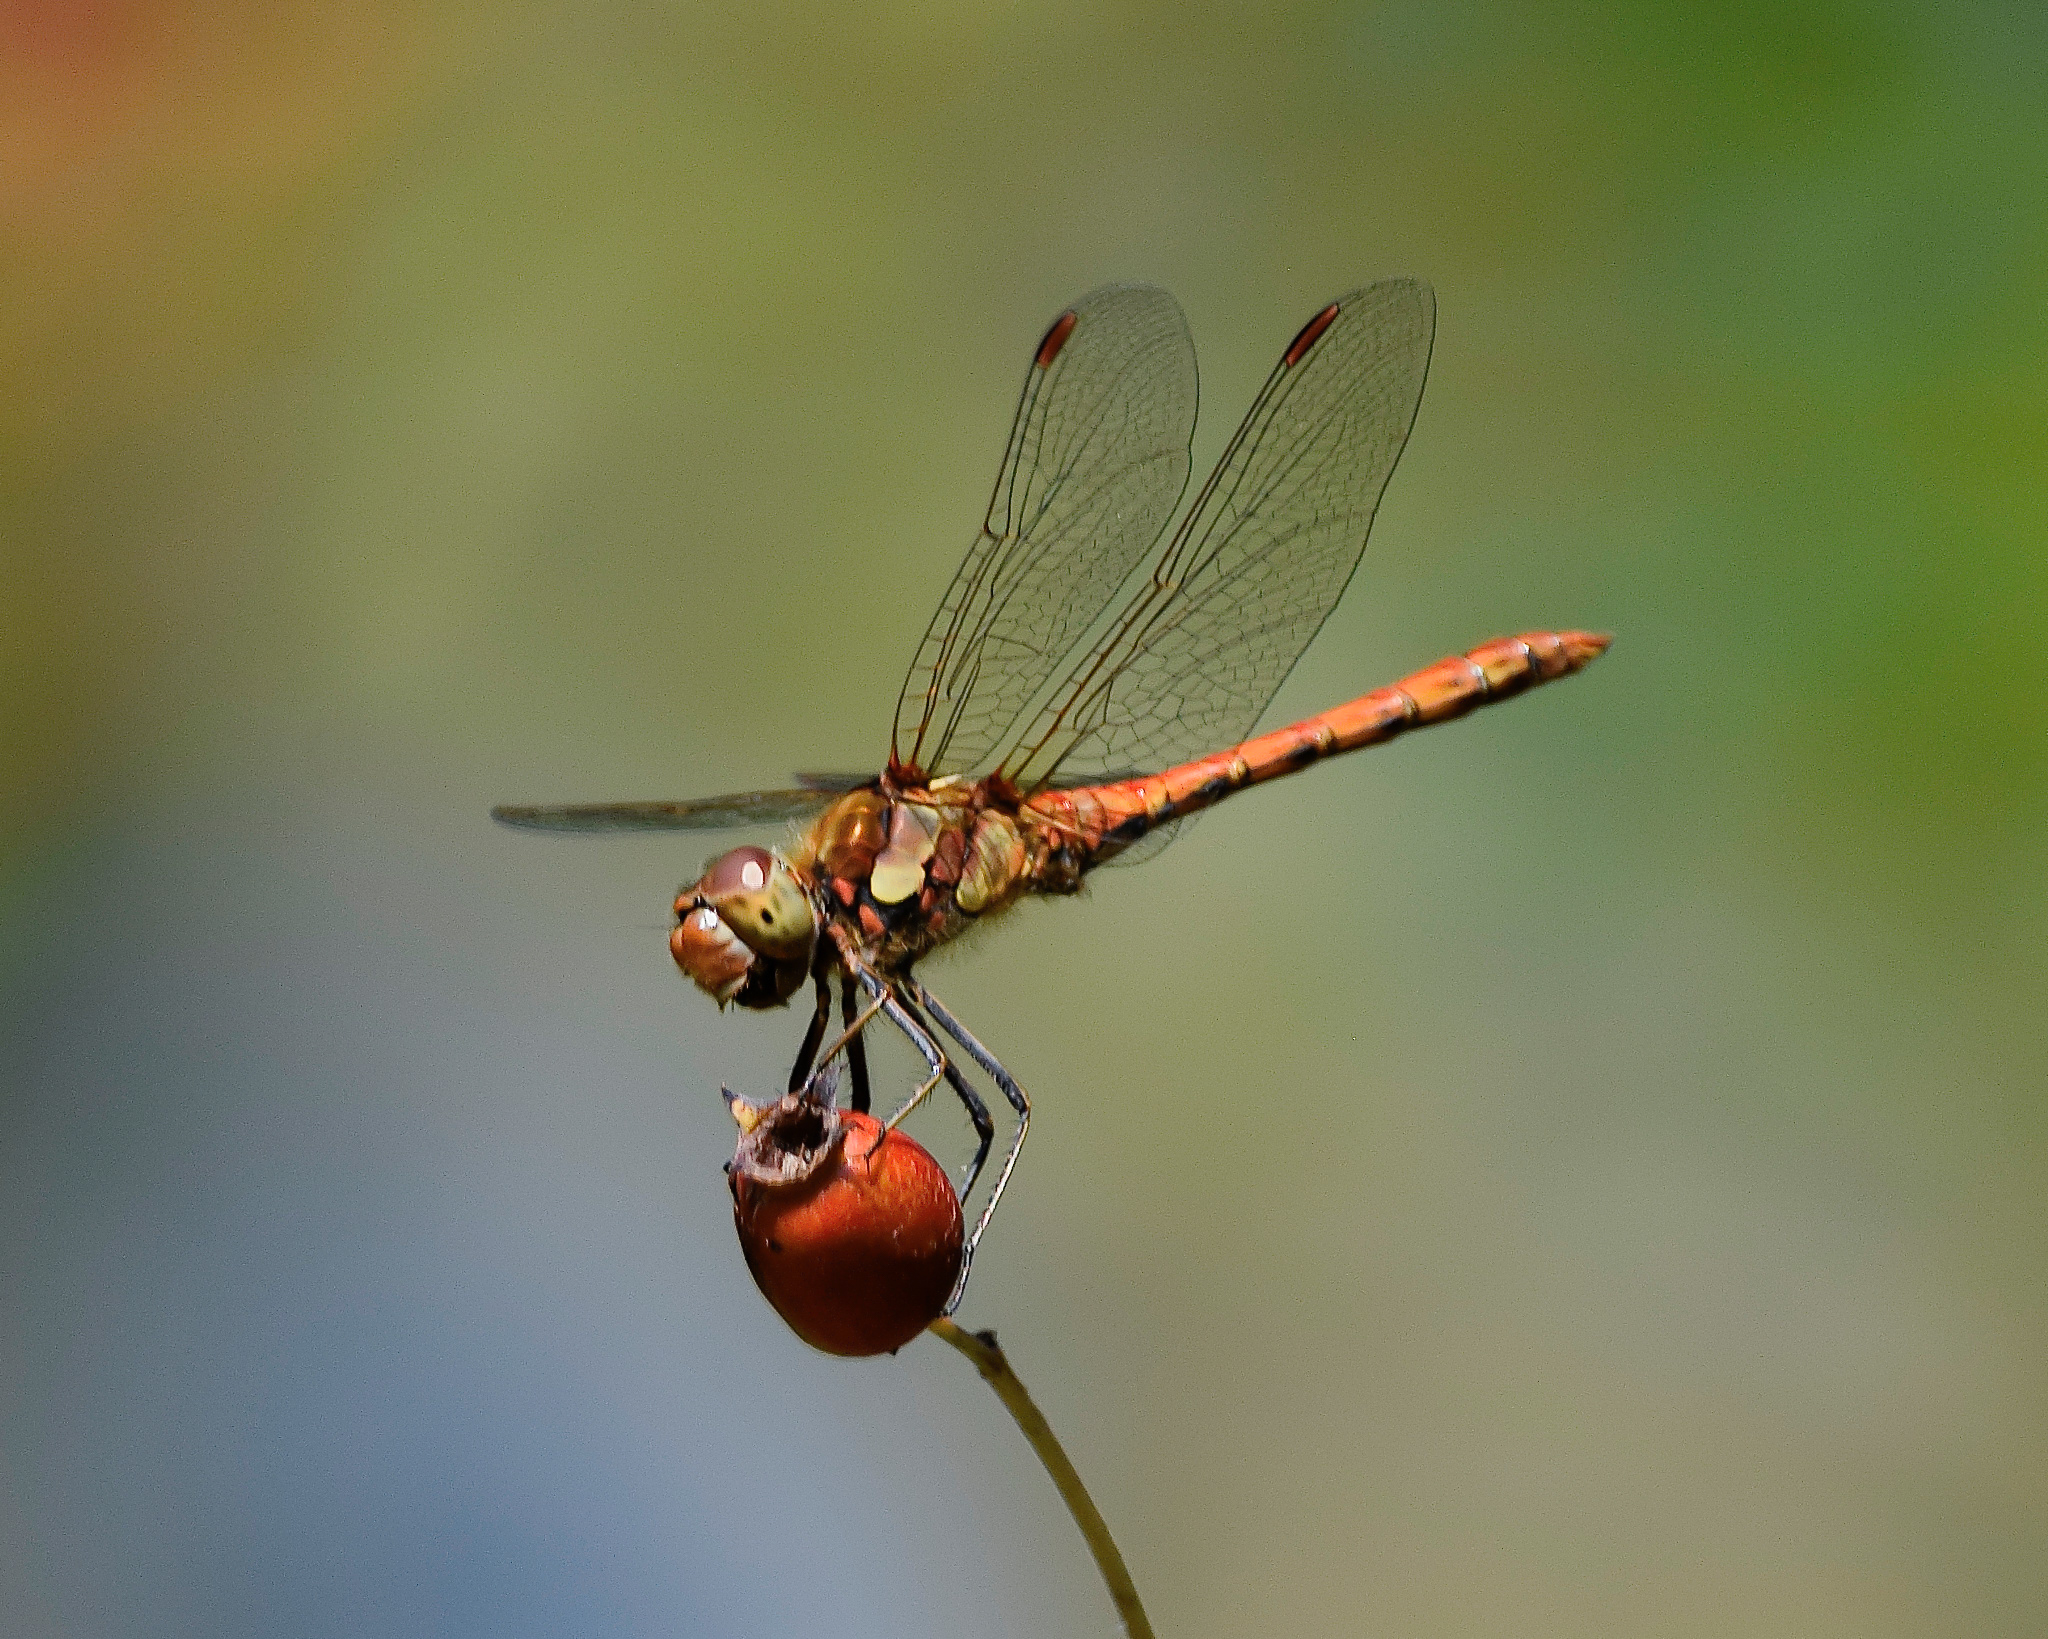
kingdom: Animalia
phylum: Arthropoda
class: Insecta
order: Odonata
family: Libellulidae
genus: Sympetrum
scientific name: Sympetrum striolatum
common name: Common darter
